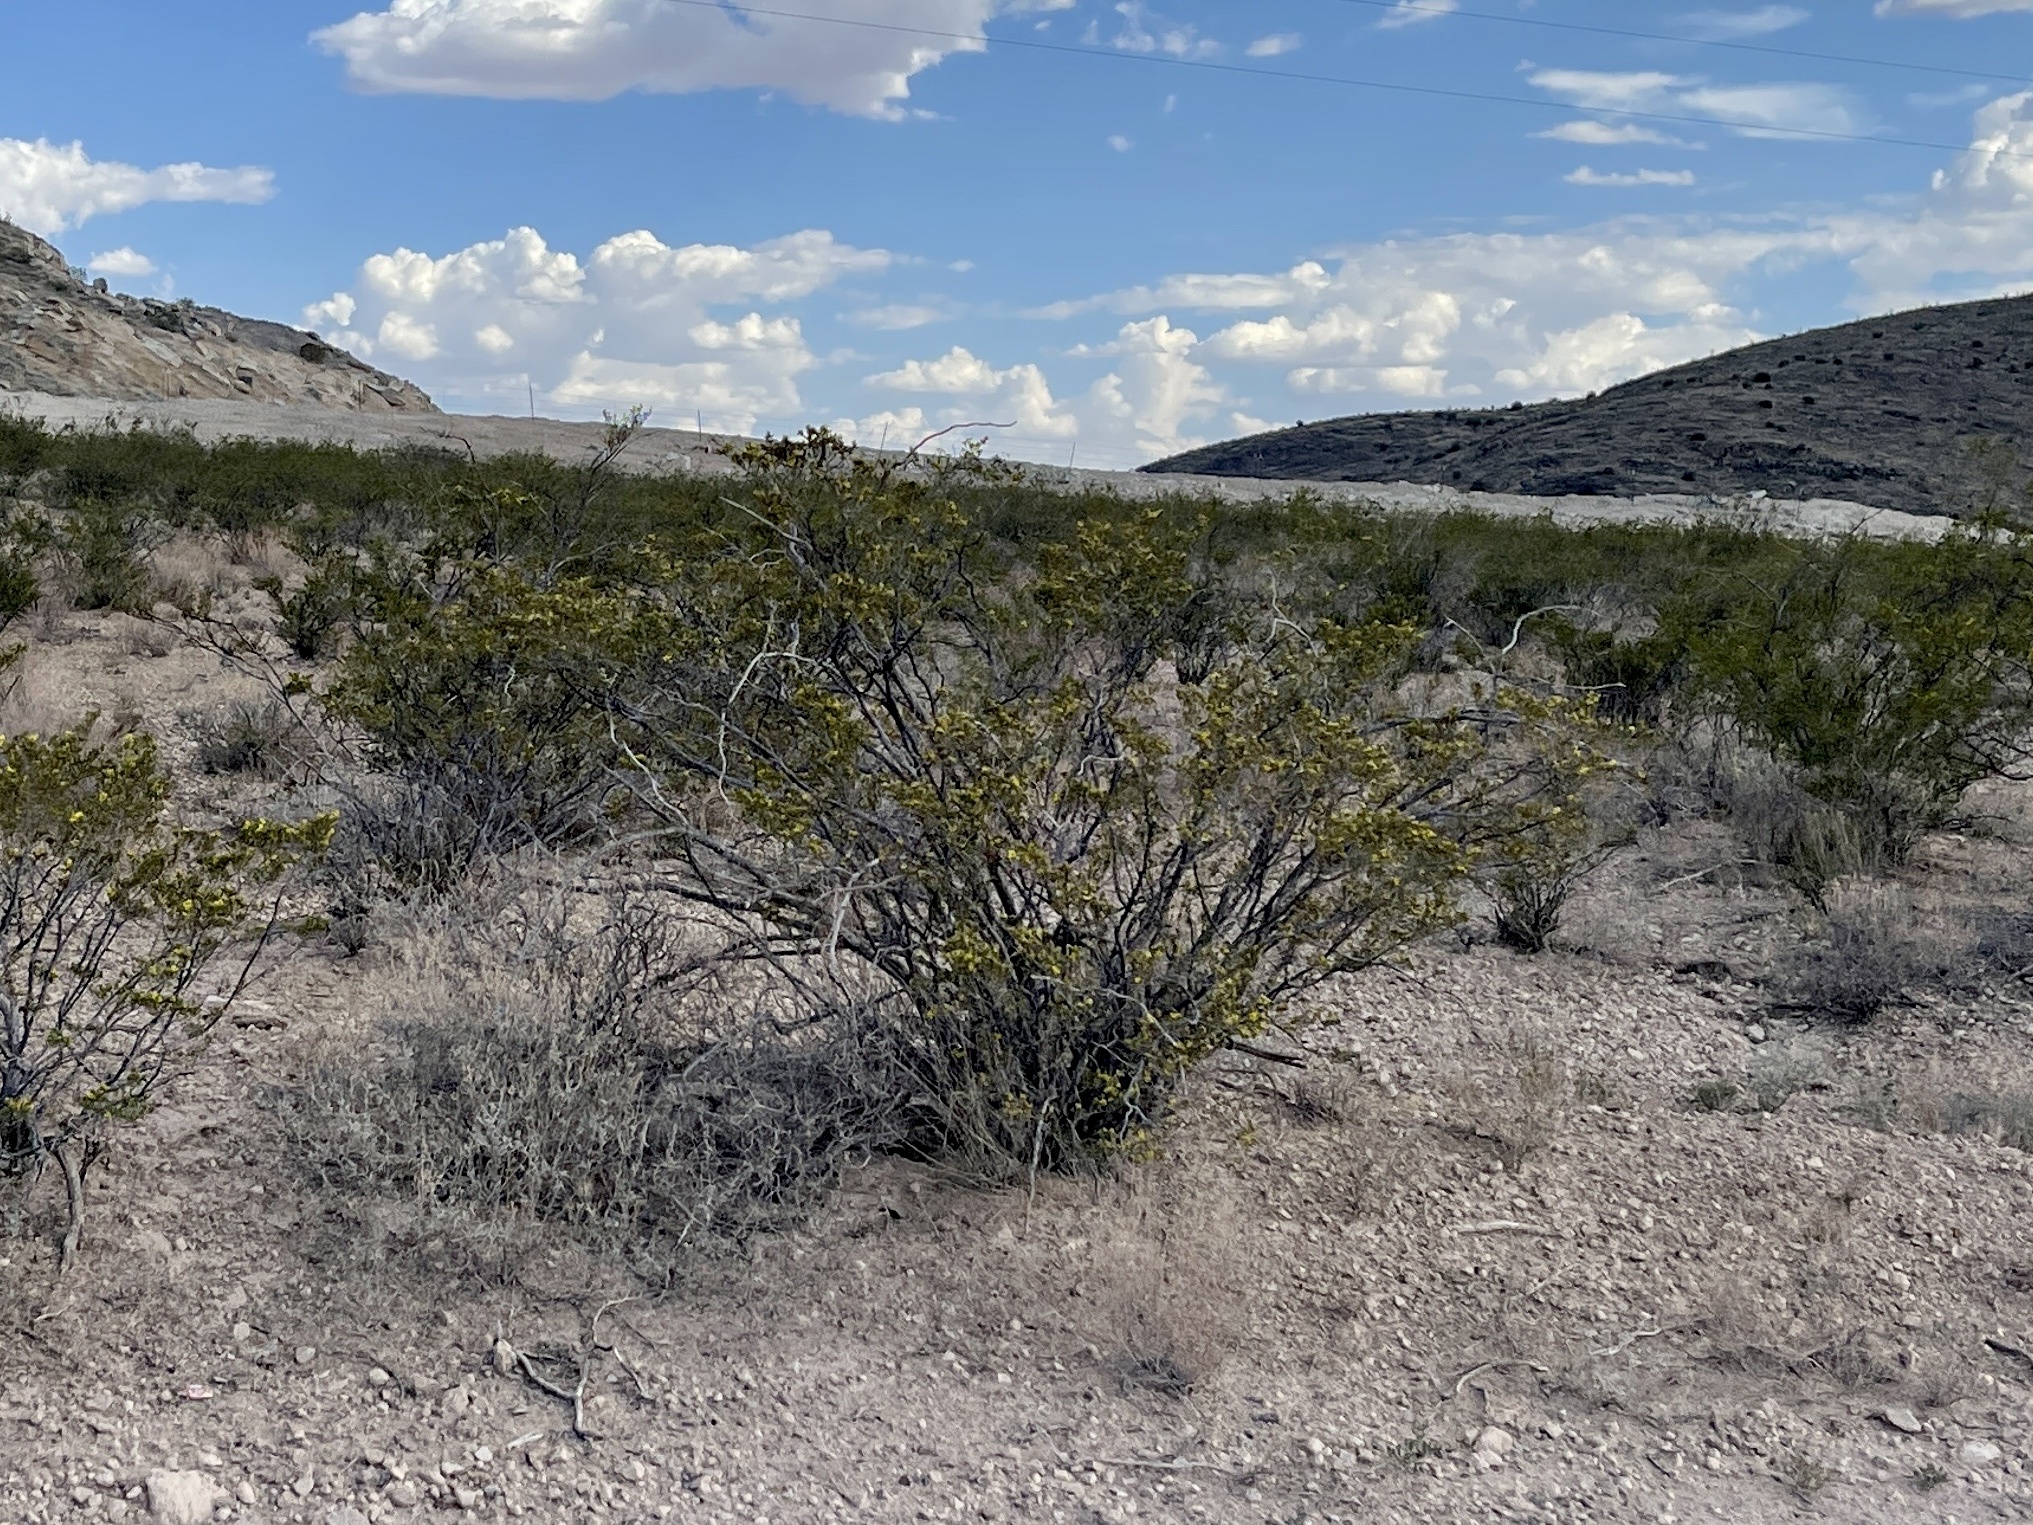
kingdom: Plantae
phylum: Tracheophyta
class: Magnoliopsida
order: Zygophyllales
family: Zygophyllaceae
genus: Larrea
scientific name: Larrea tridentata
